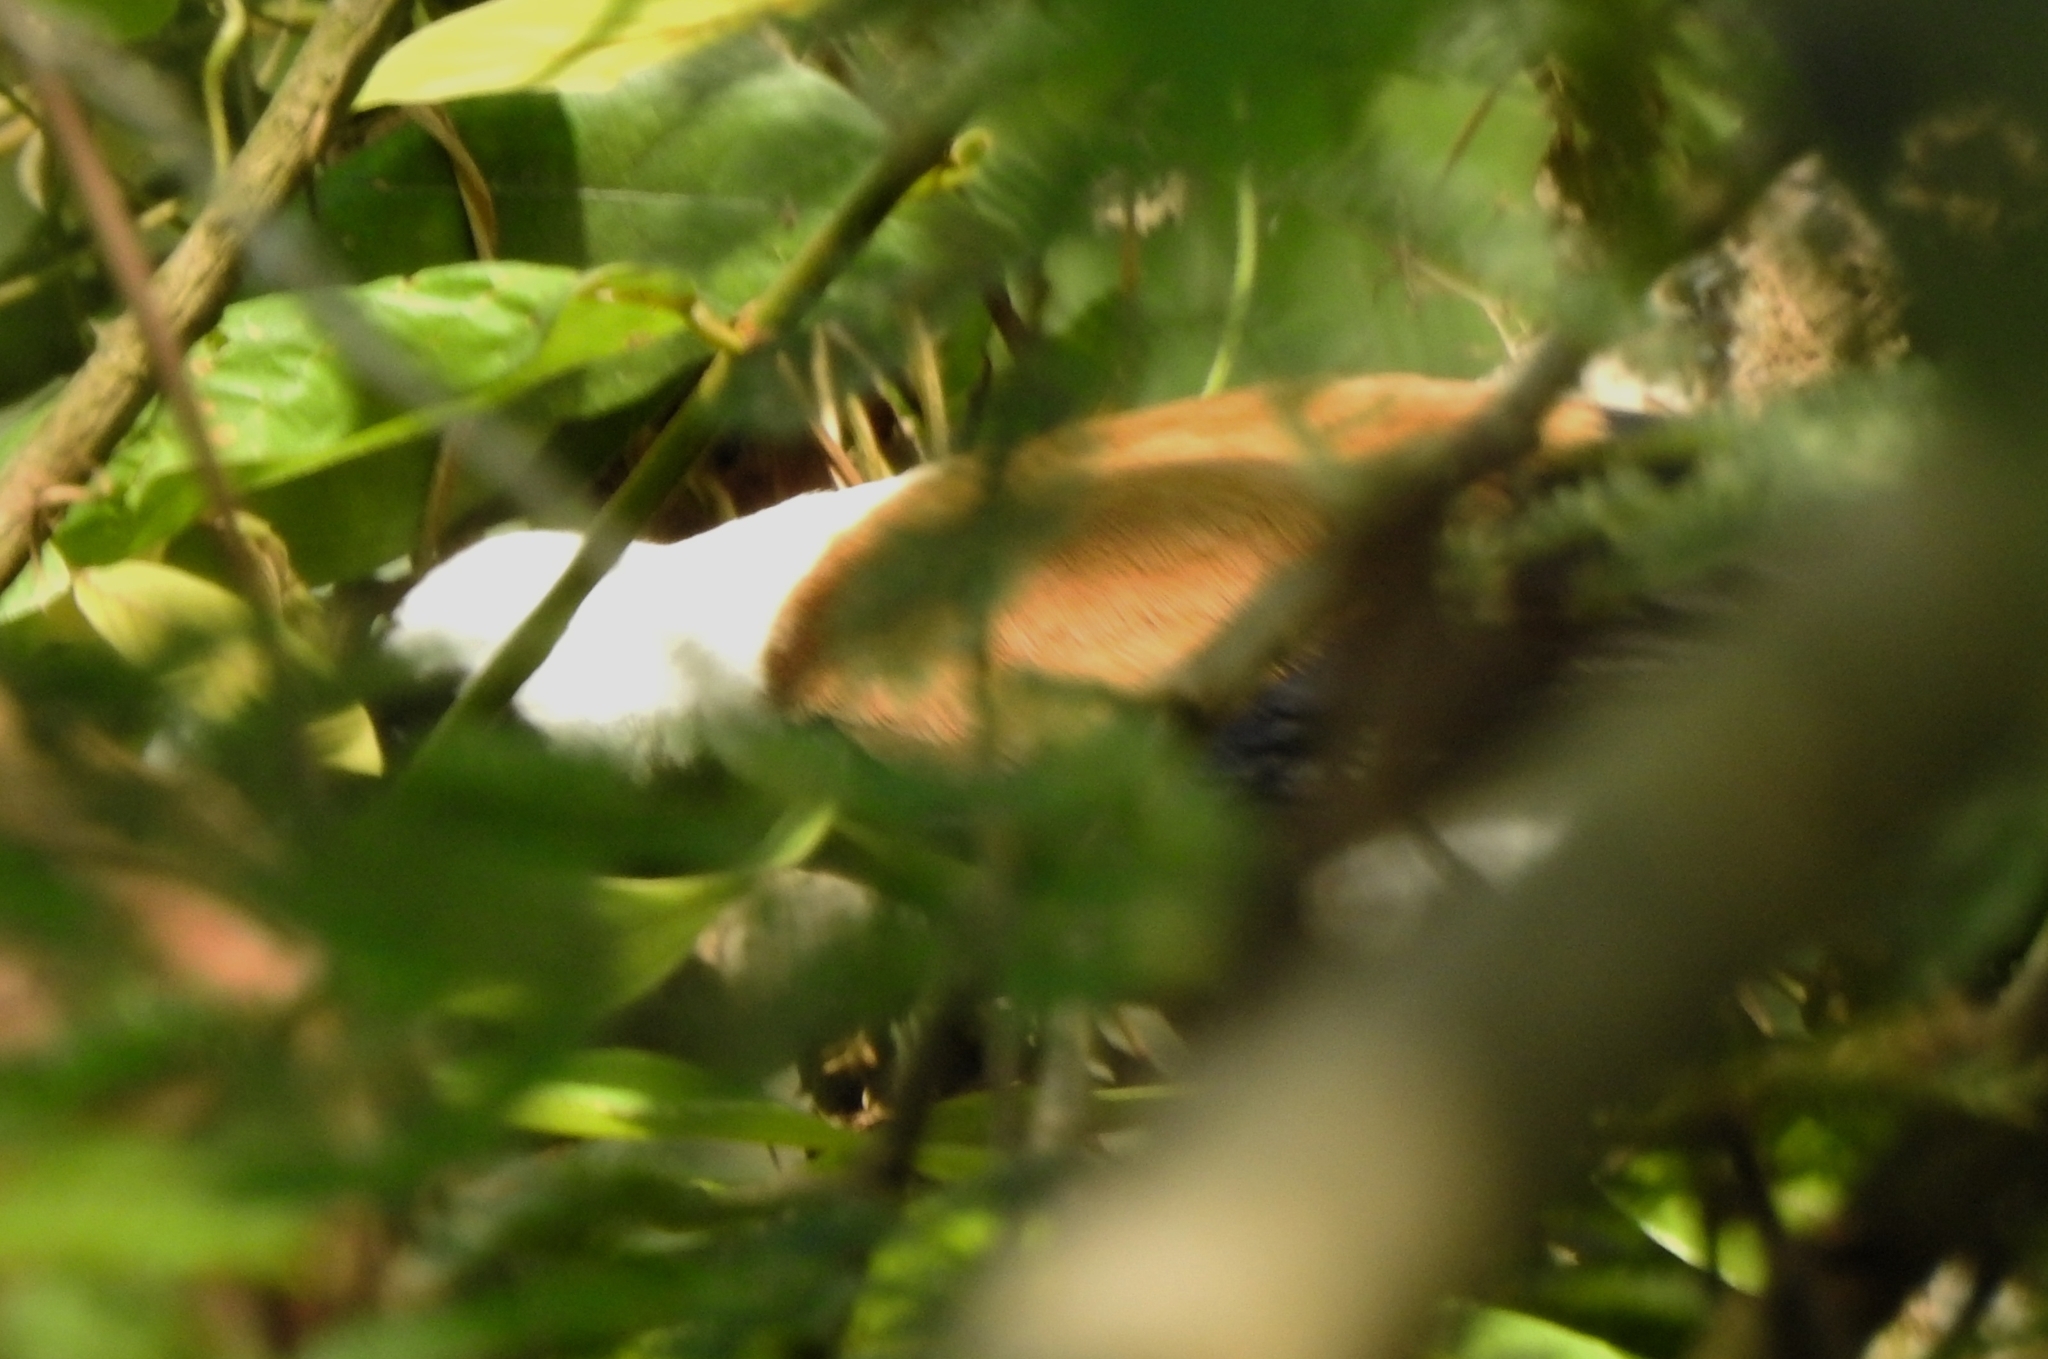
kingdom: Animalia
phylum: Chordata
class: Aves
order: Passeriformes
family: Corvidae
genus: Dendrocitta
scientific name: Dendrocitta leucogastra
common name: White-bellied treepie
